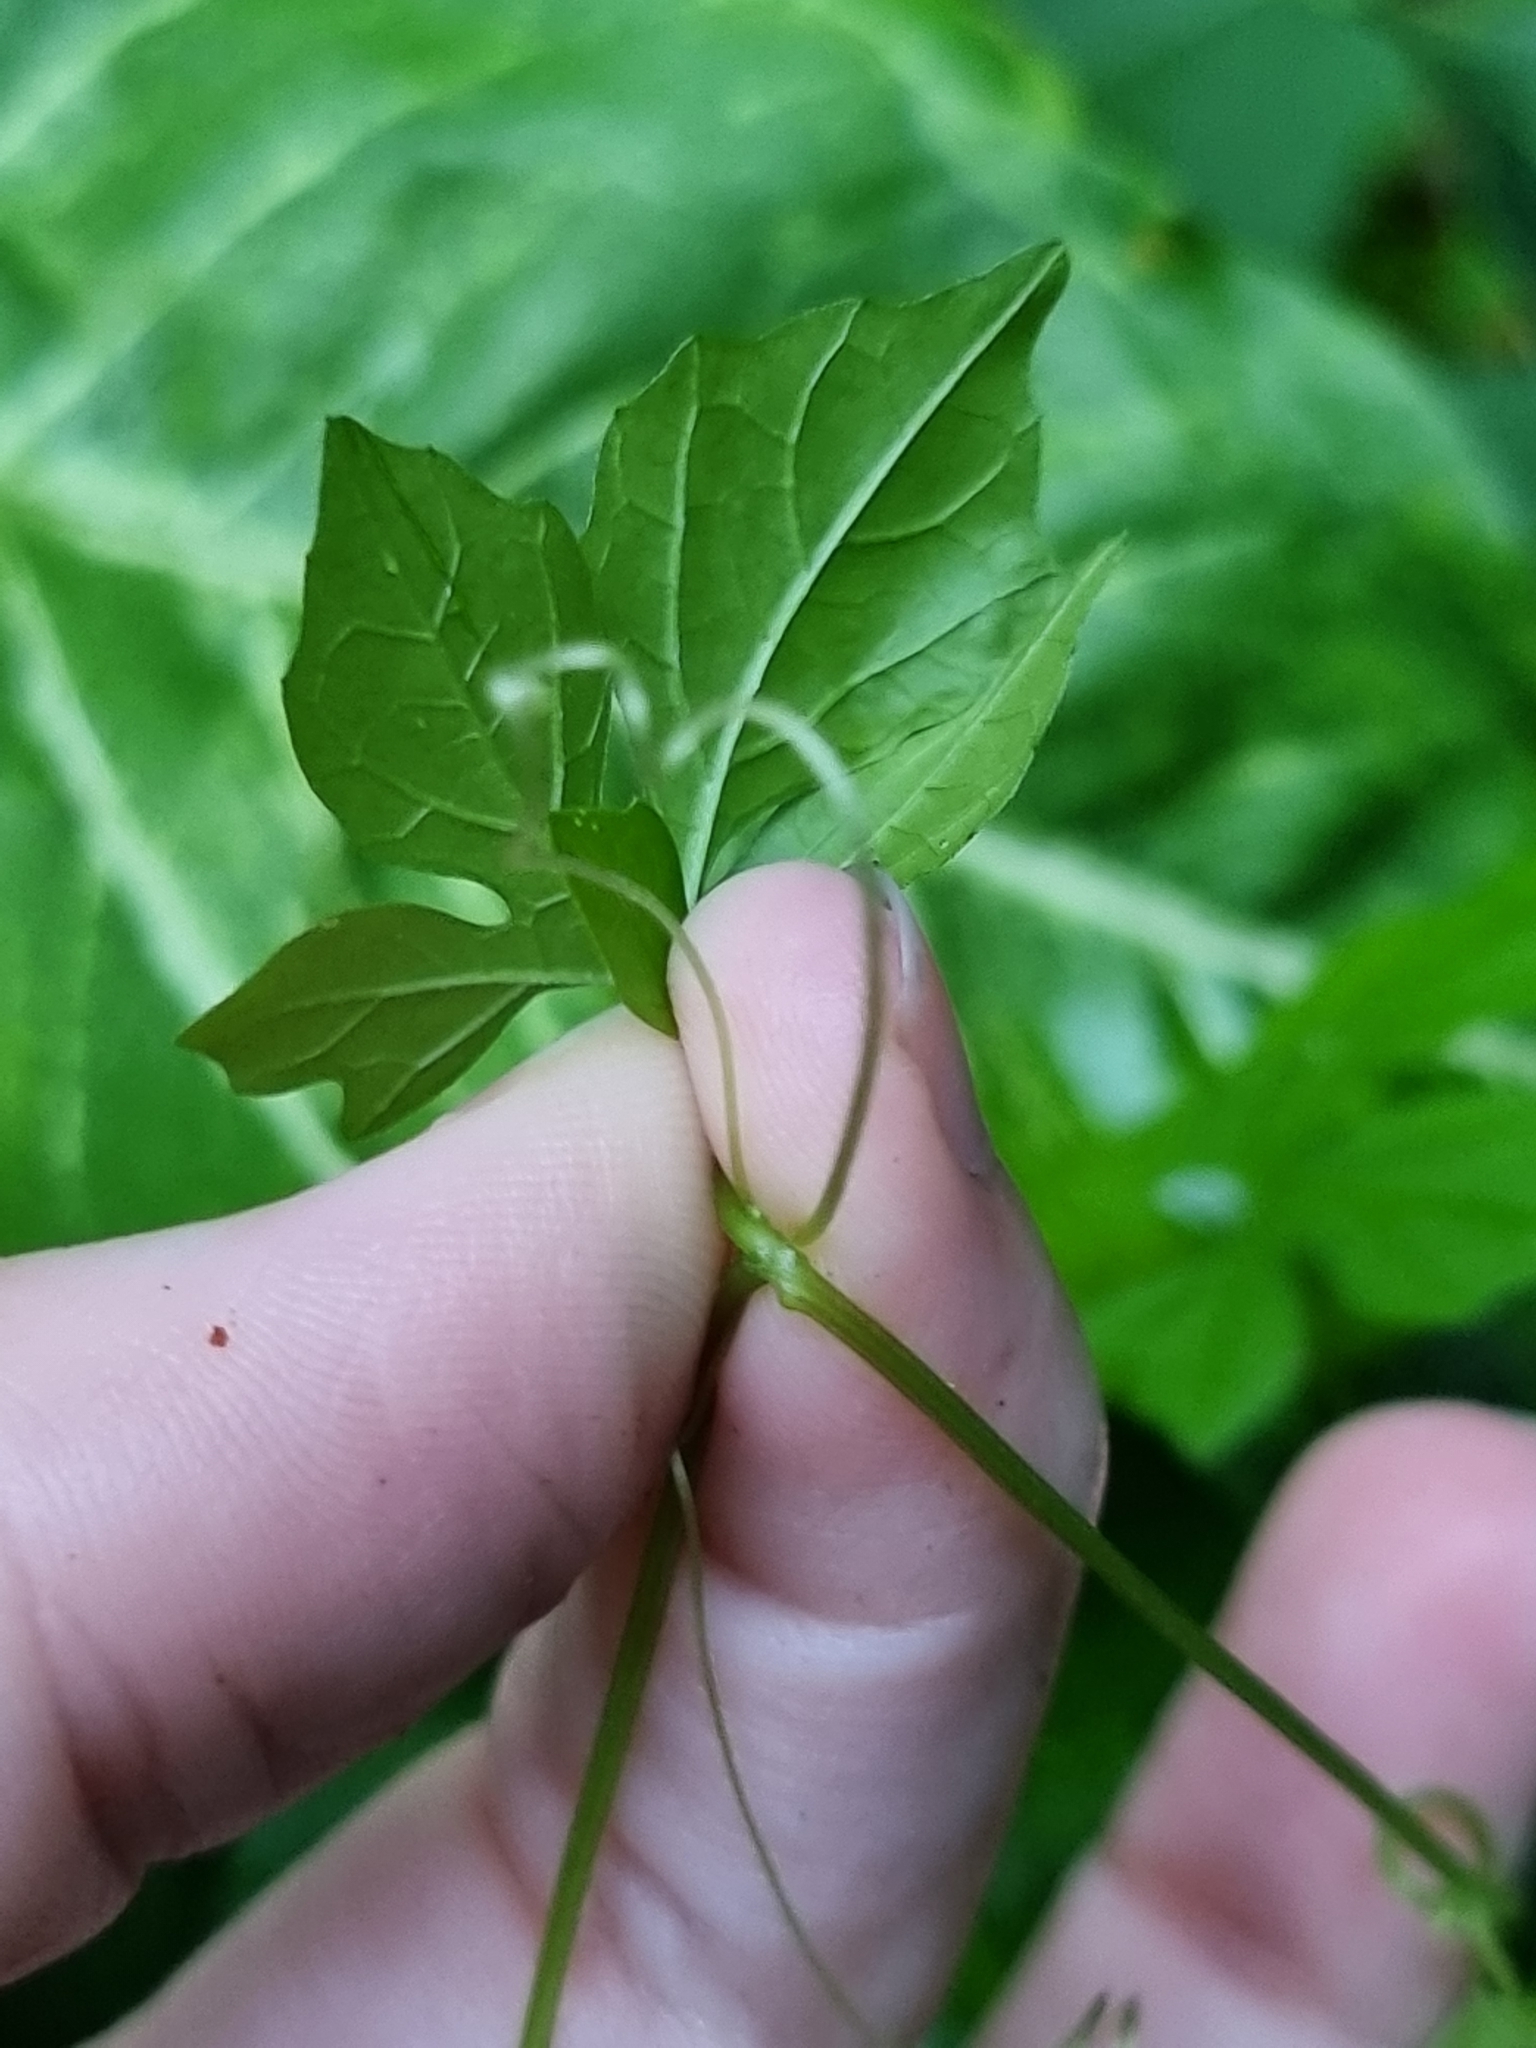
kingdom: Plantae
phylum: Tracheophyta
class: Magnoliopsida
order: Cucurbitales
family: Cucurbitaceae
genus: Momordica
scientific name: Momordica charantia
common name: Balsampear
